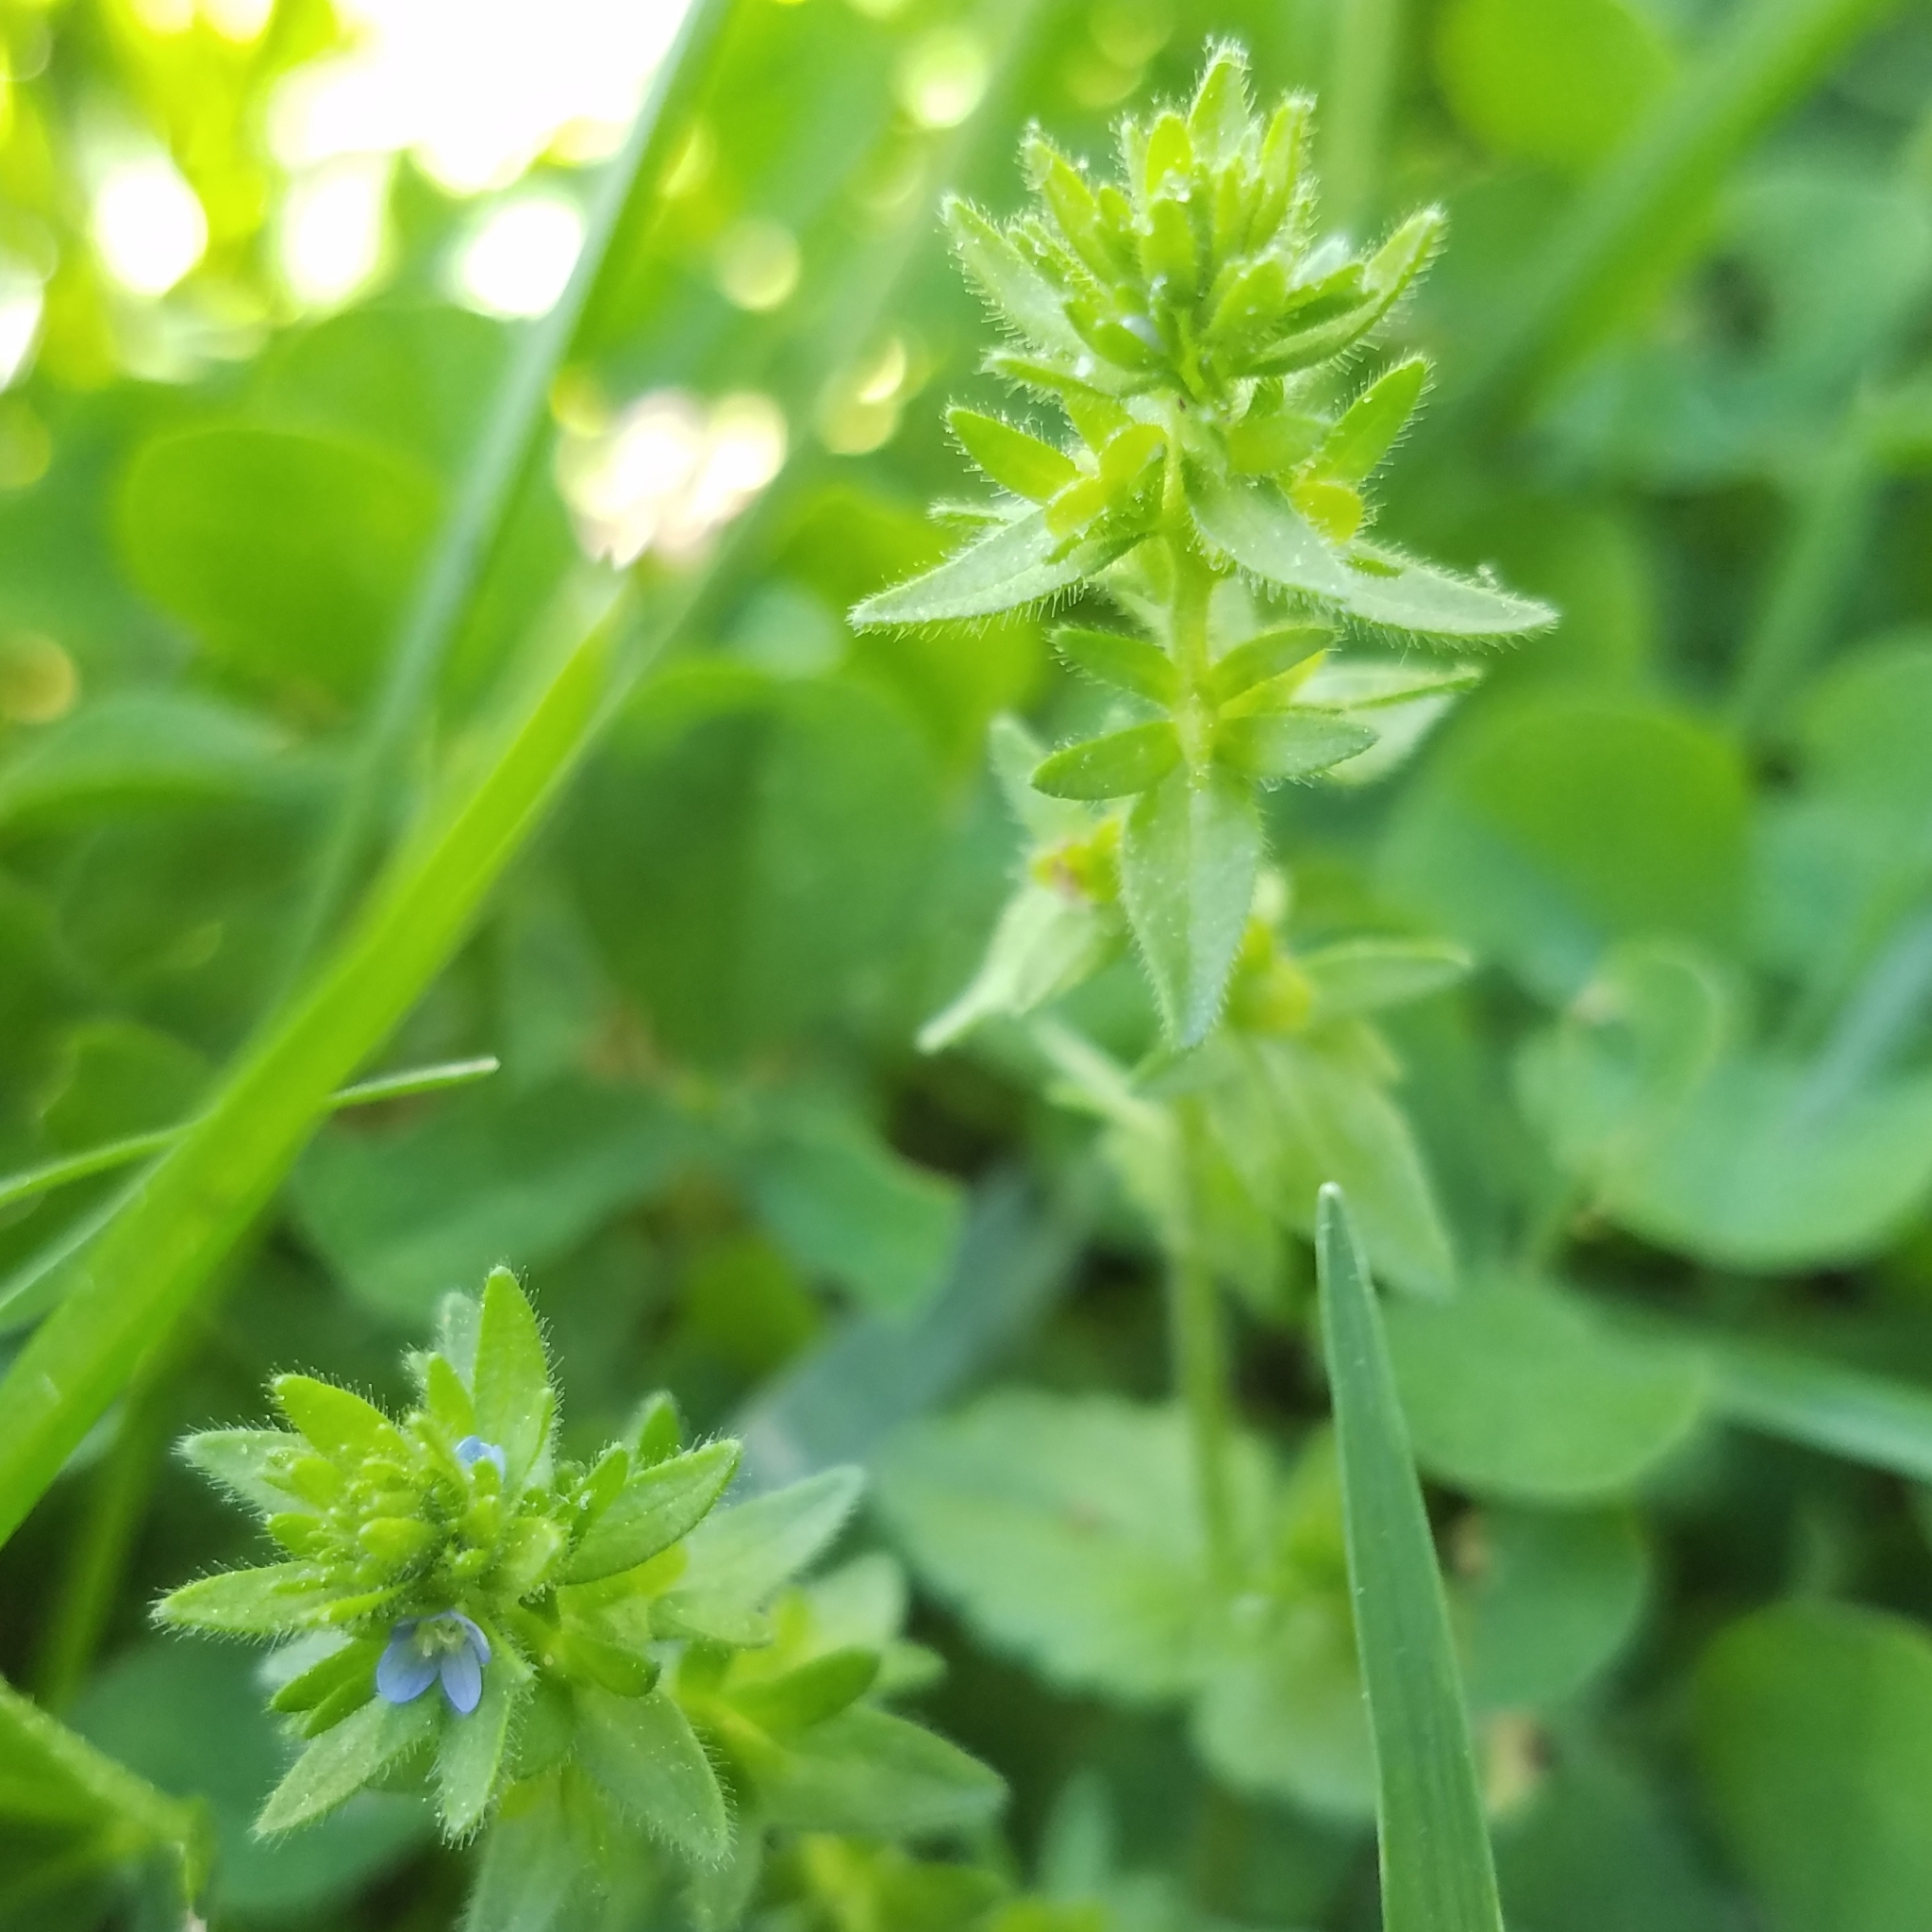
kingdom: Plantae
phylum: Tracheophyta
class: Magnoliopsida
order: Lamiales
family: Plantaginaceae
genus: Veronica
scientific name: Veronica arvensis
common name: Corn speedwell
